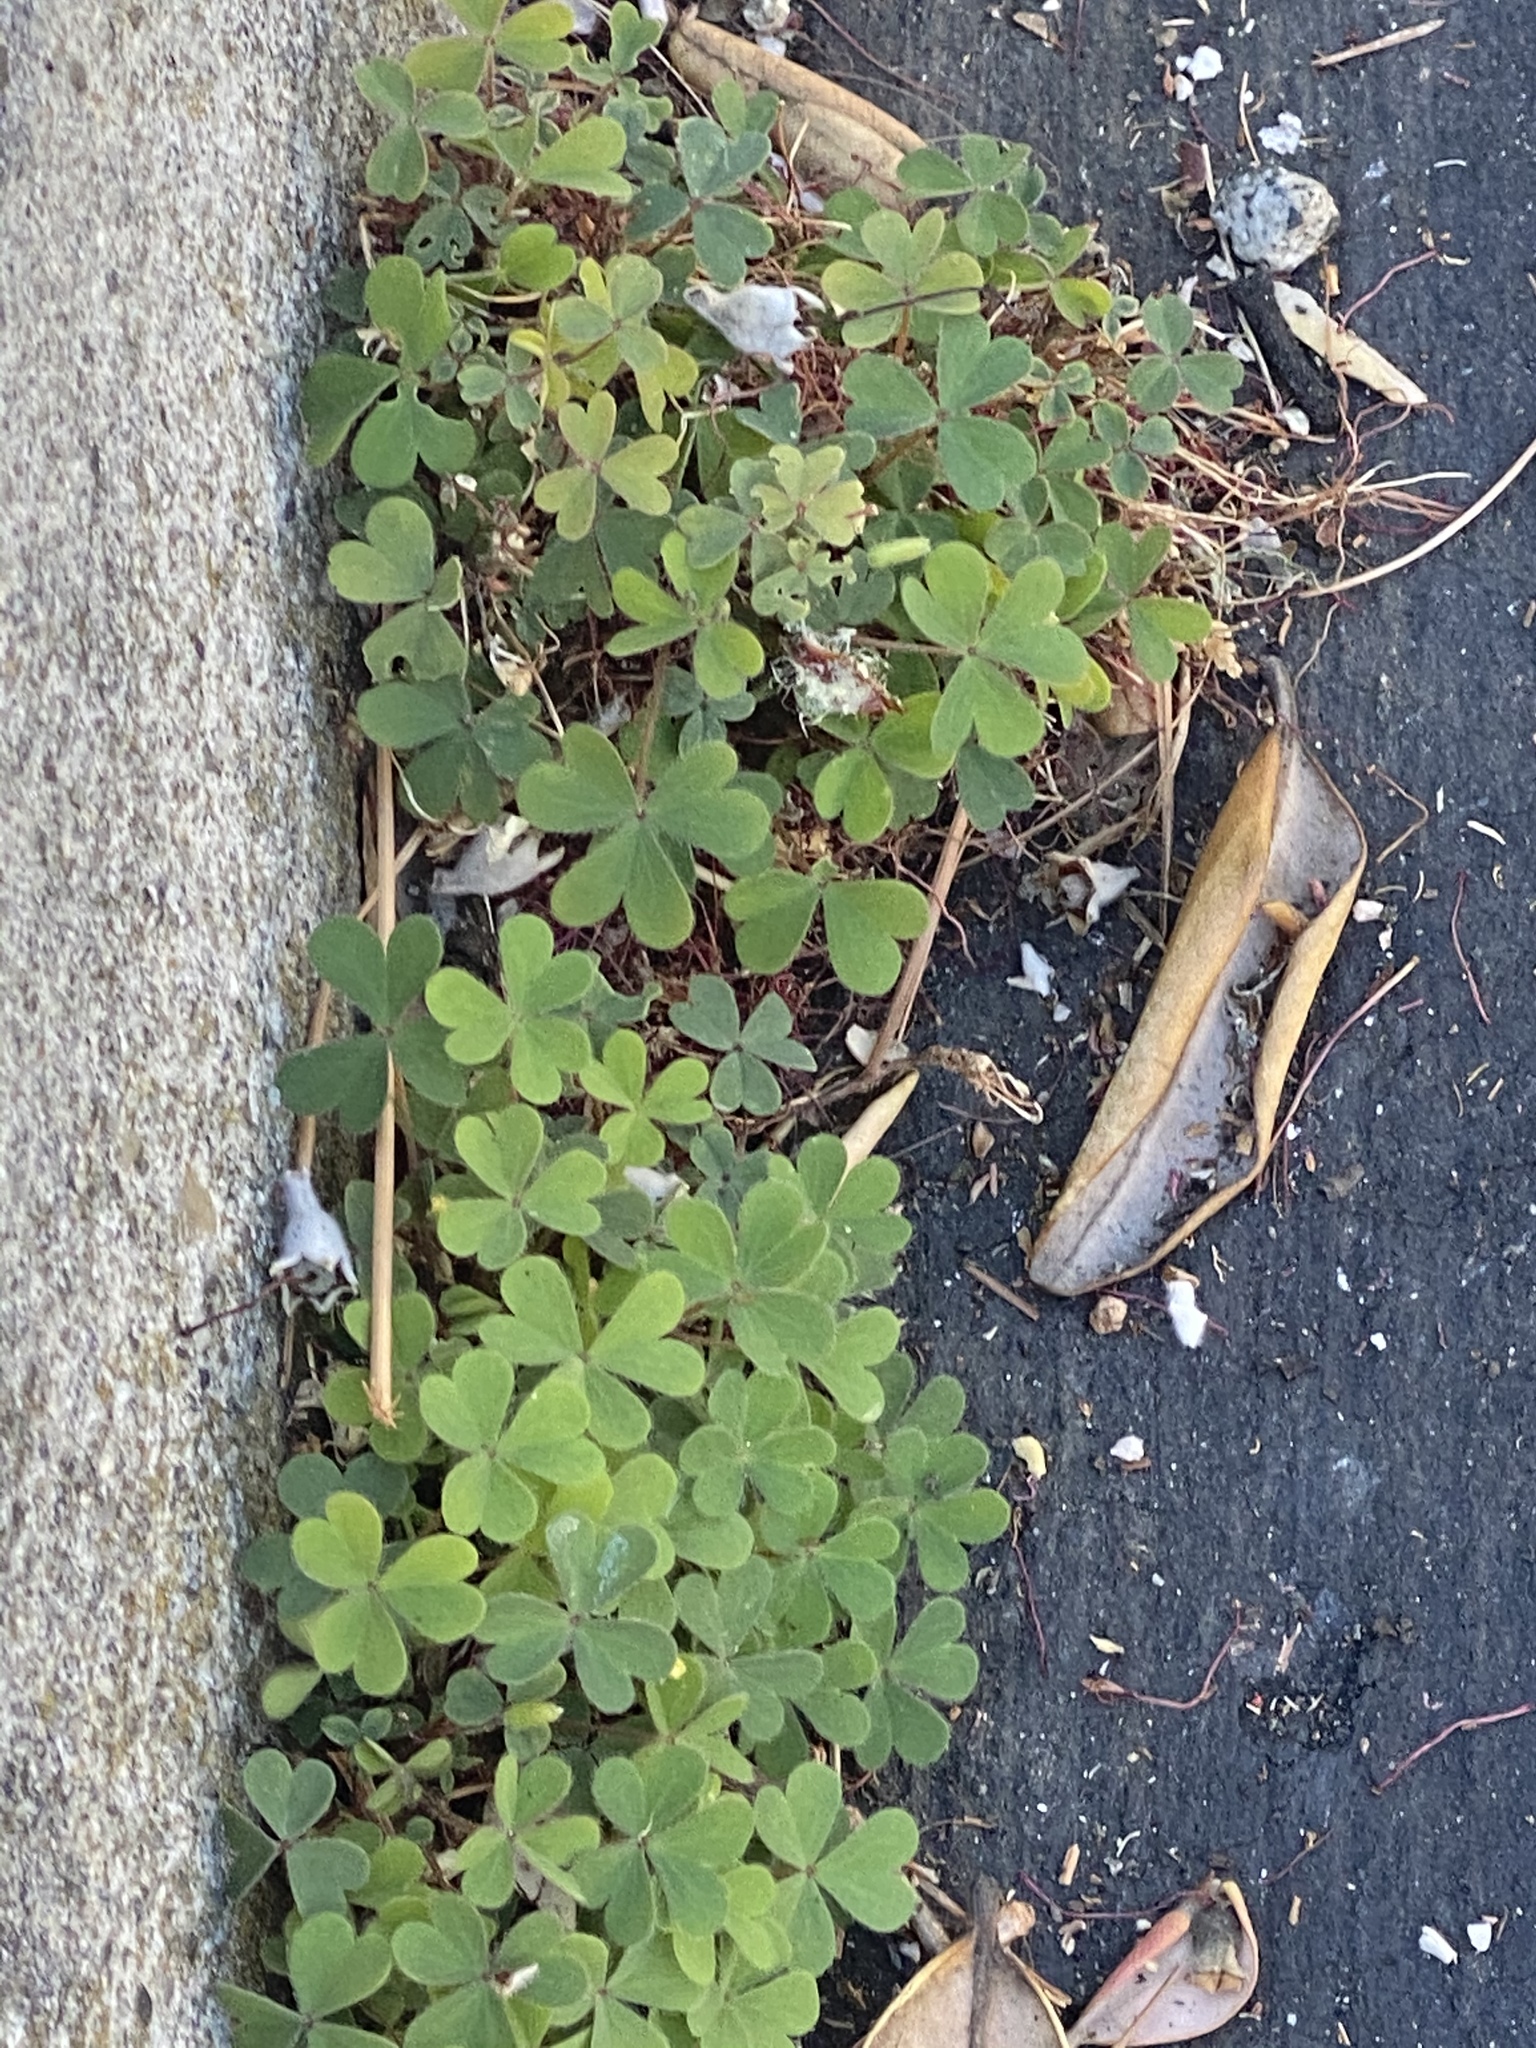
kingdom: Plantae
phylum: Tracheophyta
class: Magnoliopsida
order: Oxalidales
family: Oxalidaceae
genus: Oxalis
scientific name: Oxalis corniculata
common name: Procumbent yellow-sorrel
